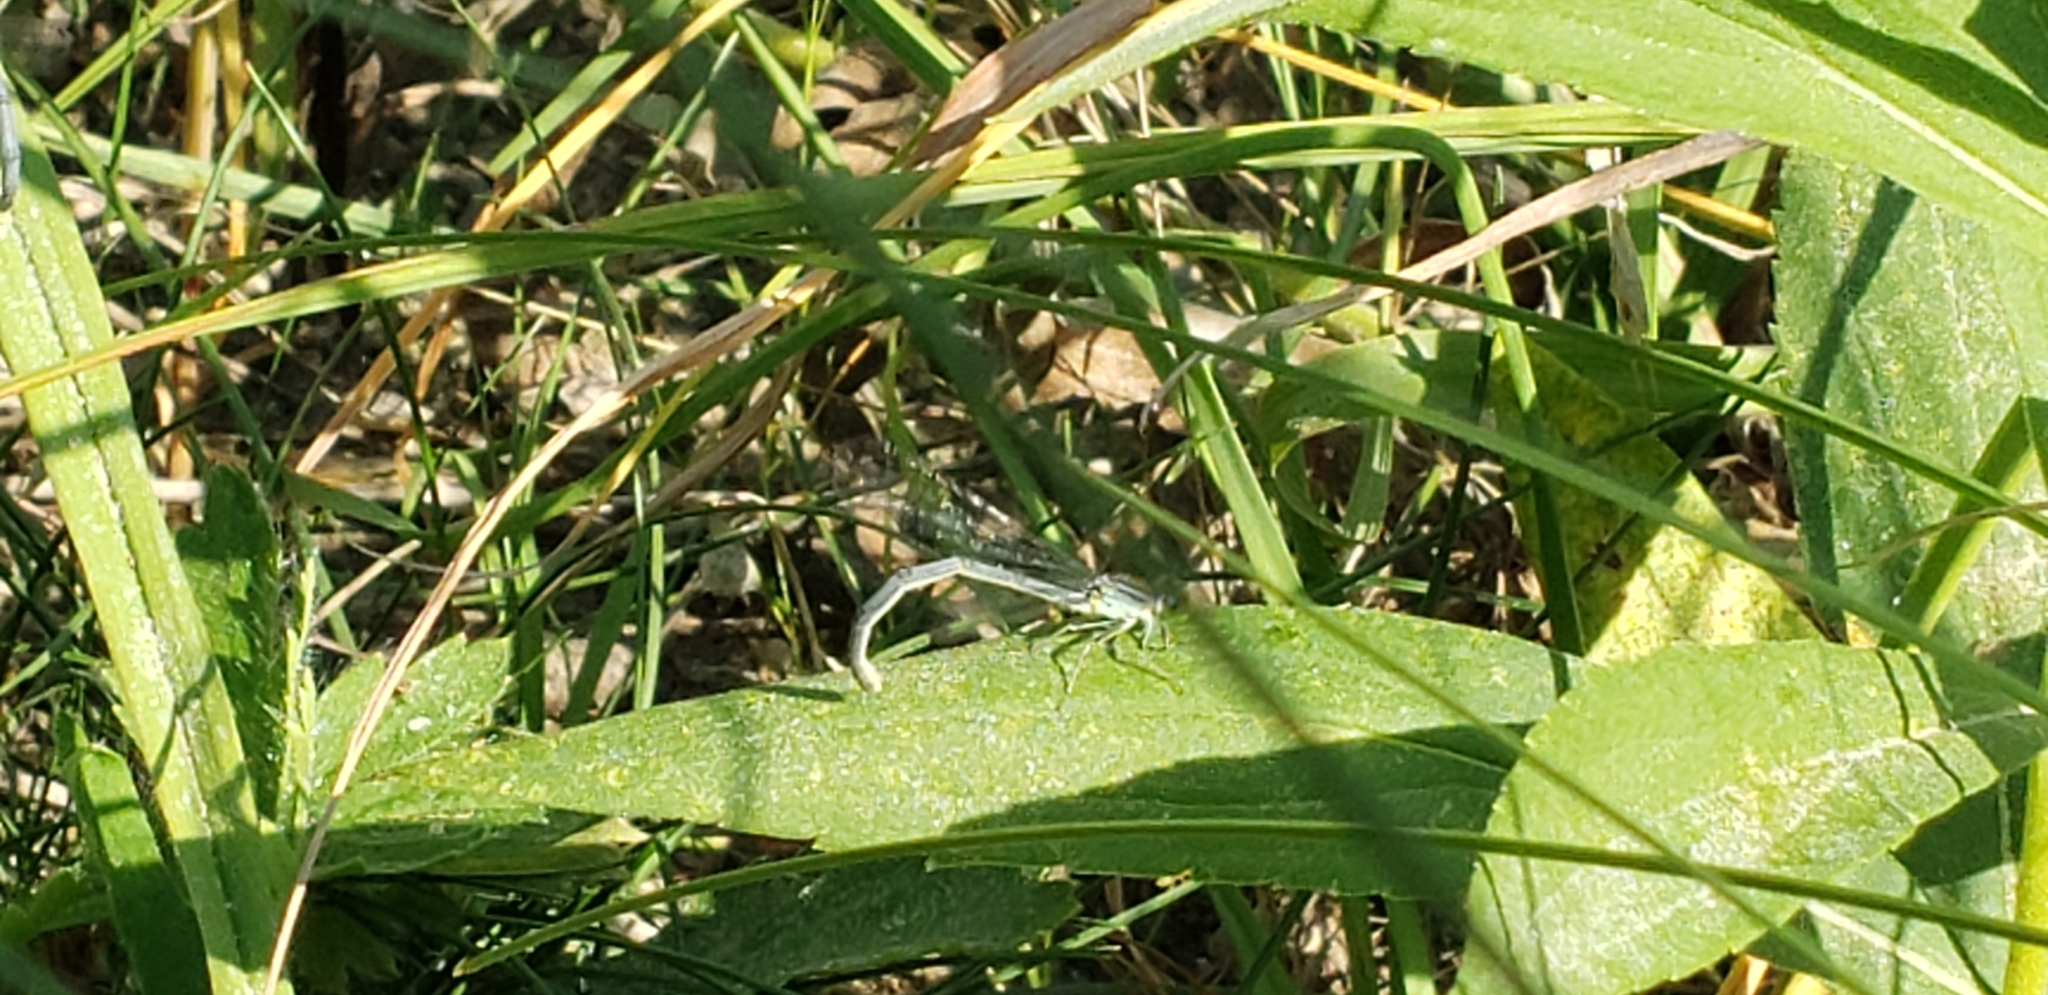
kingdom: Animalia
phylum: Arthropoda
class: Insecta
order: Odonata
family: Coenagrionidae
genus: Ischnura
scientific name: Ischnura verticalis
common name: Eastern forktail
